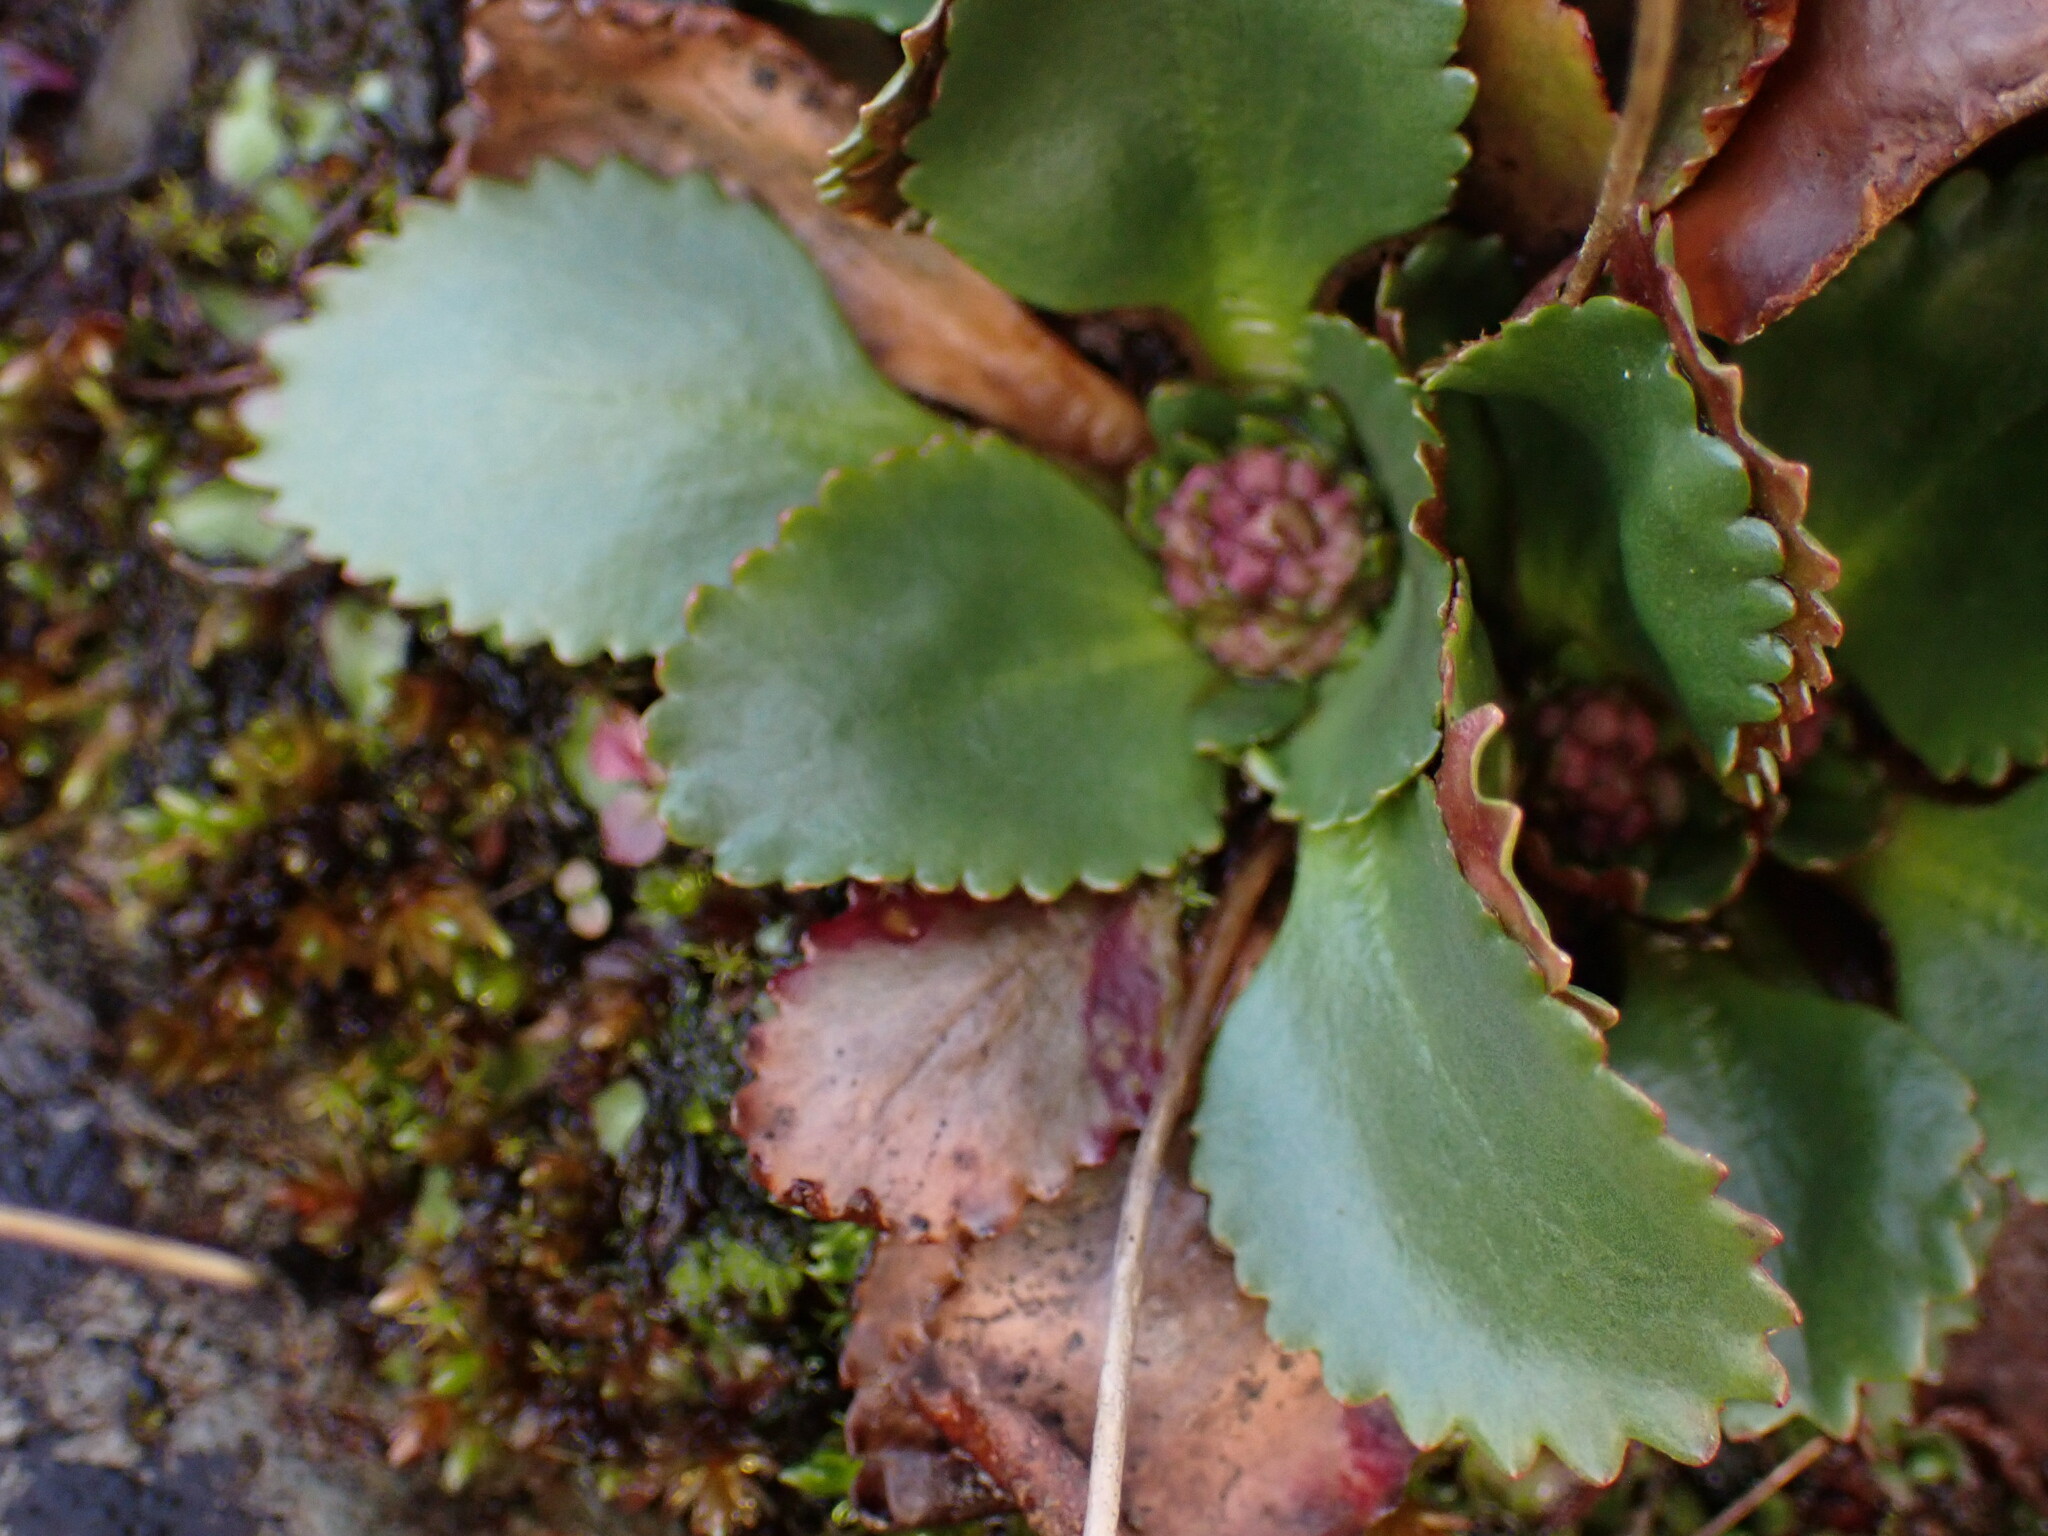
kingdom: Plantae
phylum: Tracheophyta
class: Magnoliopsida
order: Saxifragales
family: Saxifragaceae
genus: Micranthes
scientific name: Micranthes rufidula
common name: Rustyhair saxifrage
